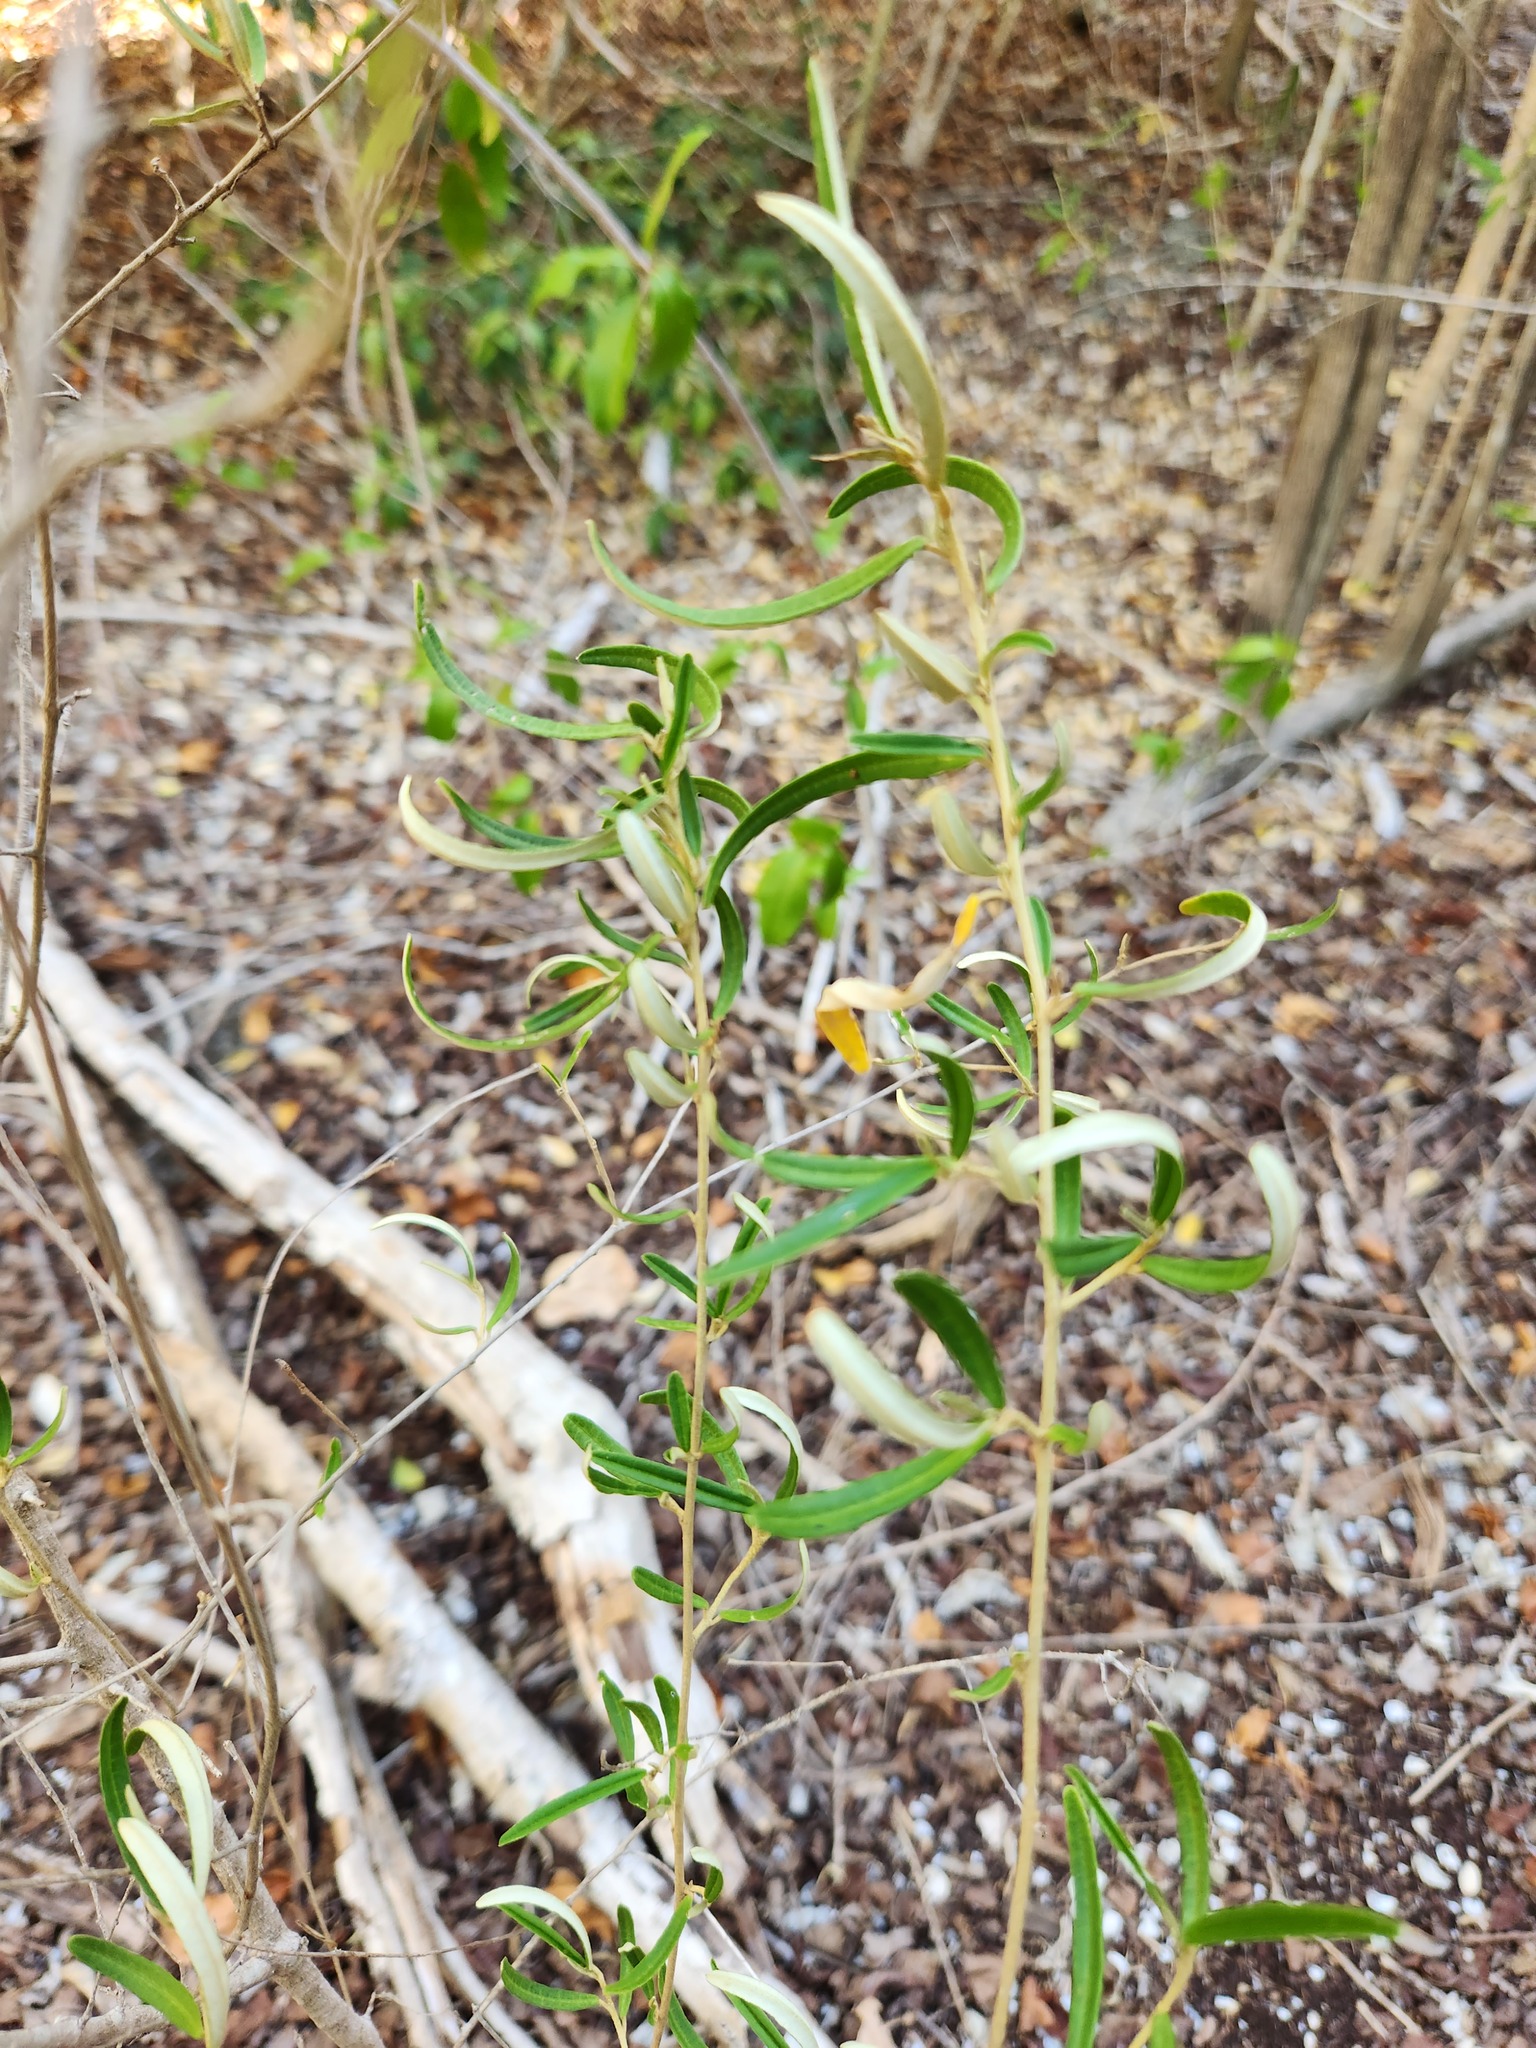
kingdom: Plantae
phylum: Tracheophyta
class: Magnoliopsida
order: Malpighiales
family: Euphorbiaceae
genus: Croton
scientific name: Croton linearis
